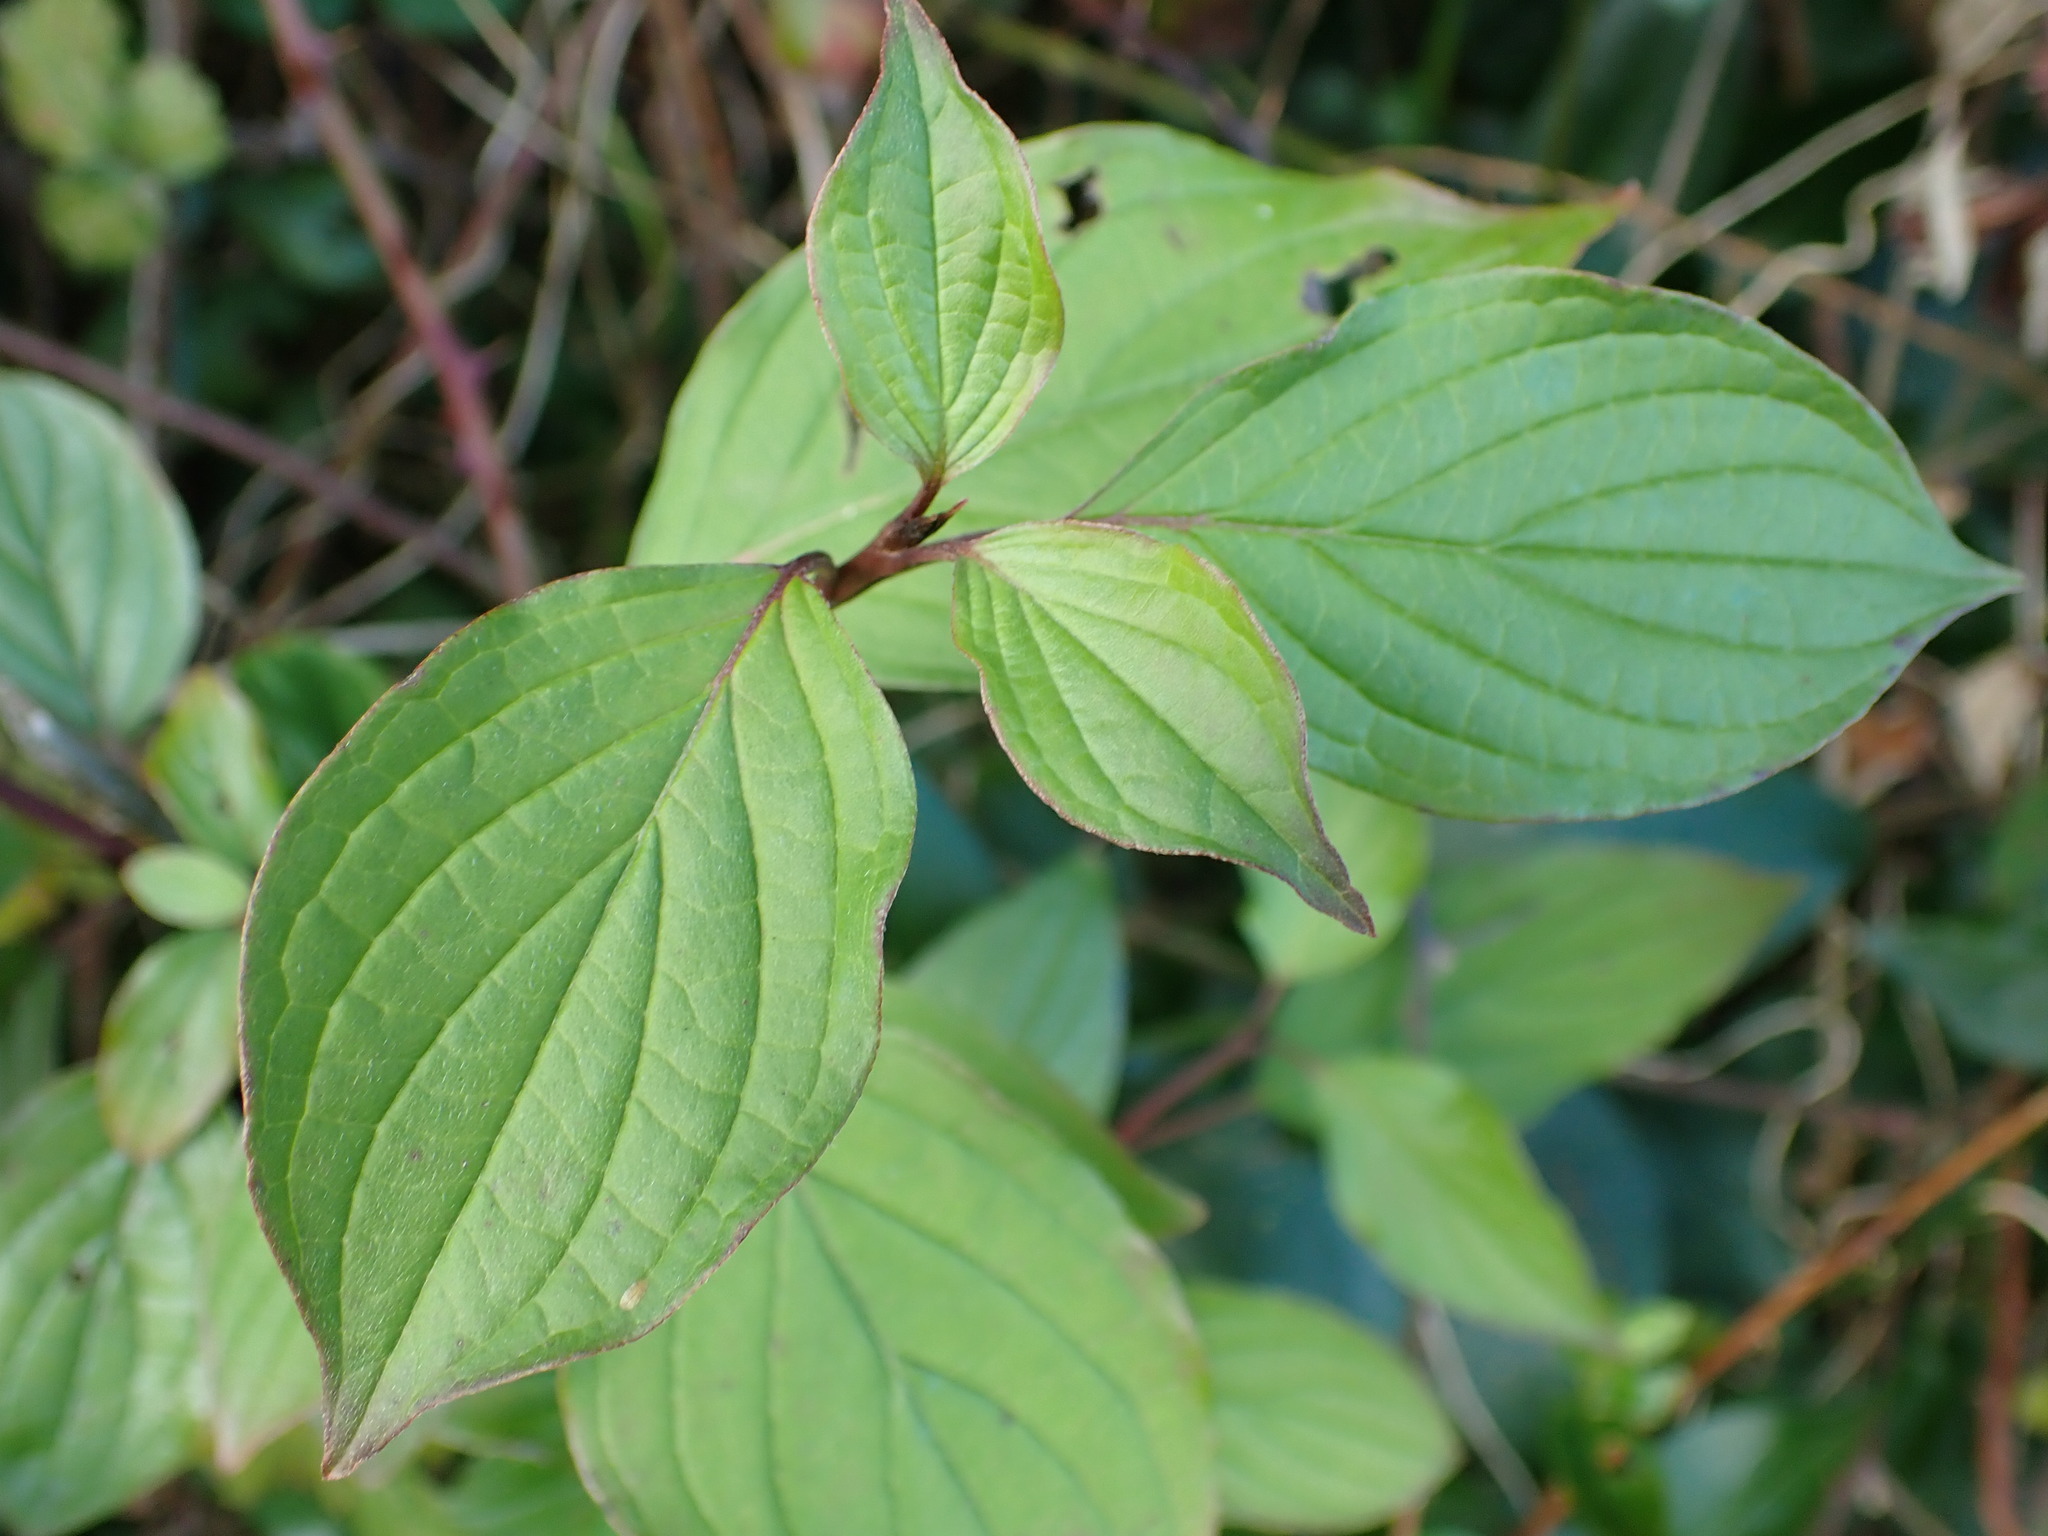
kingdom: Plantae
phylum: Tracheophyta
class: Magnoliopsida
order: Cornales
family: Cornaceae
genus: Cornus
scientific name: Cornus sanguinea
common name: Dogwood
